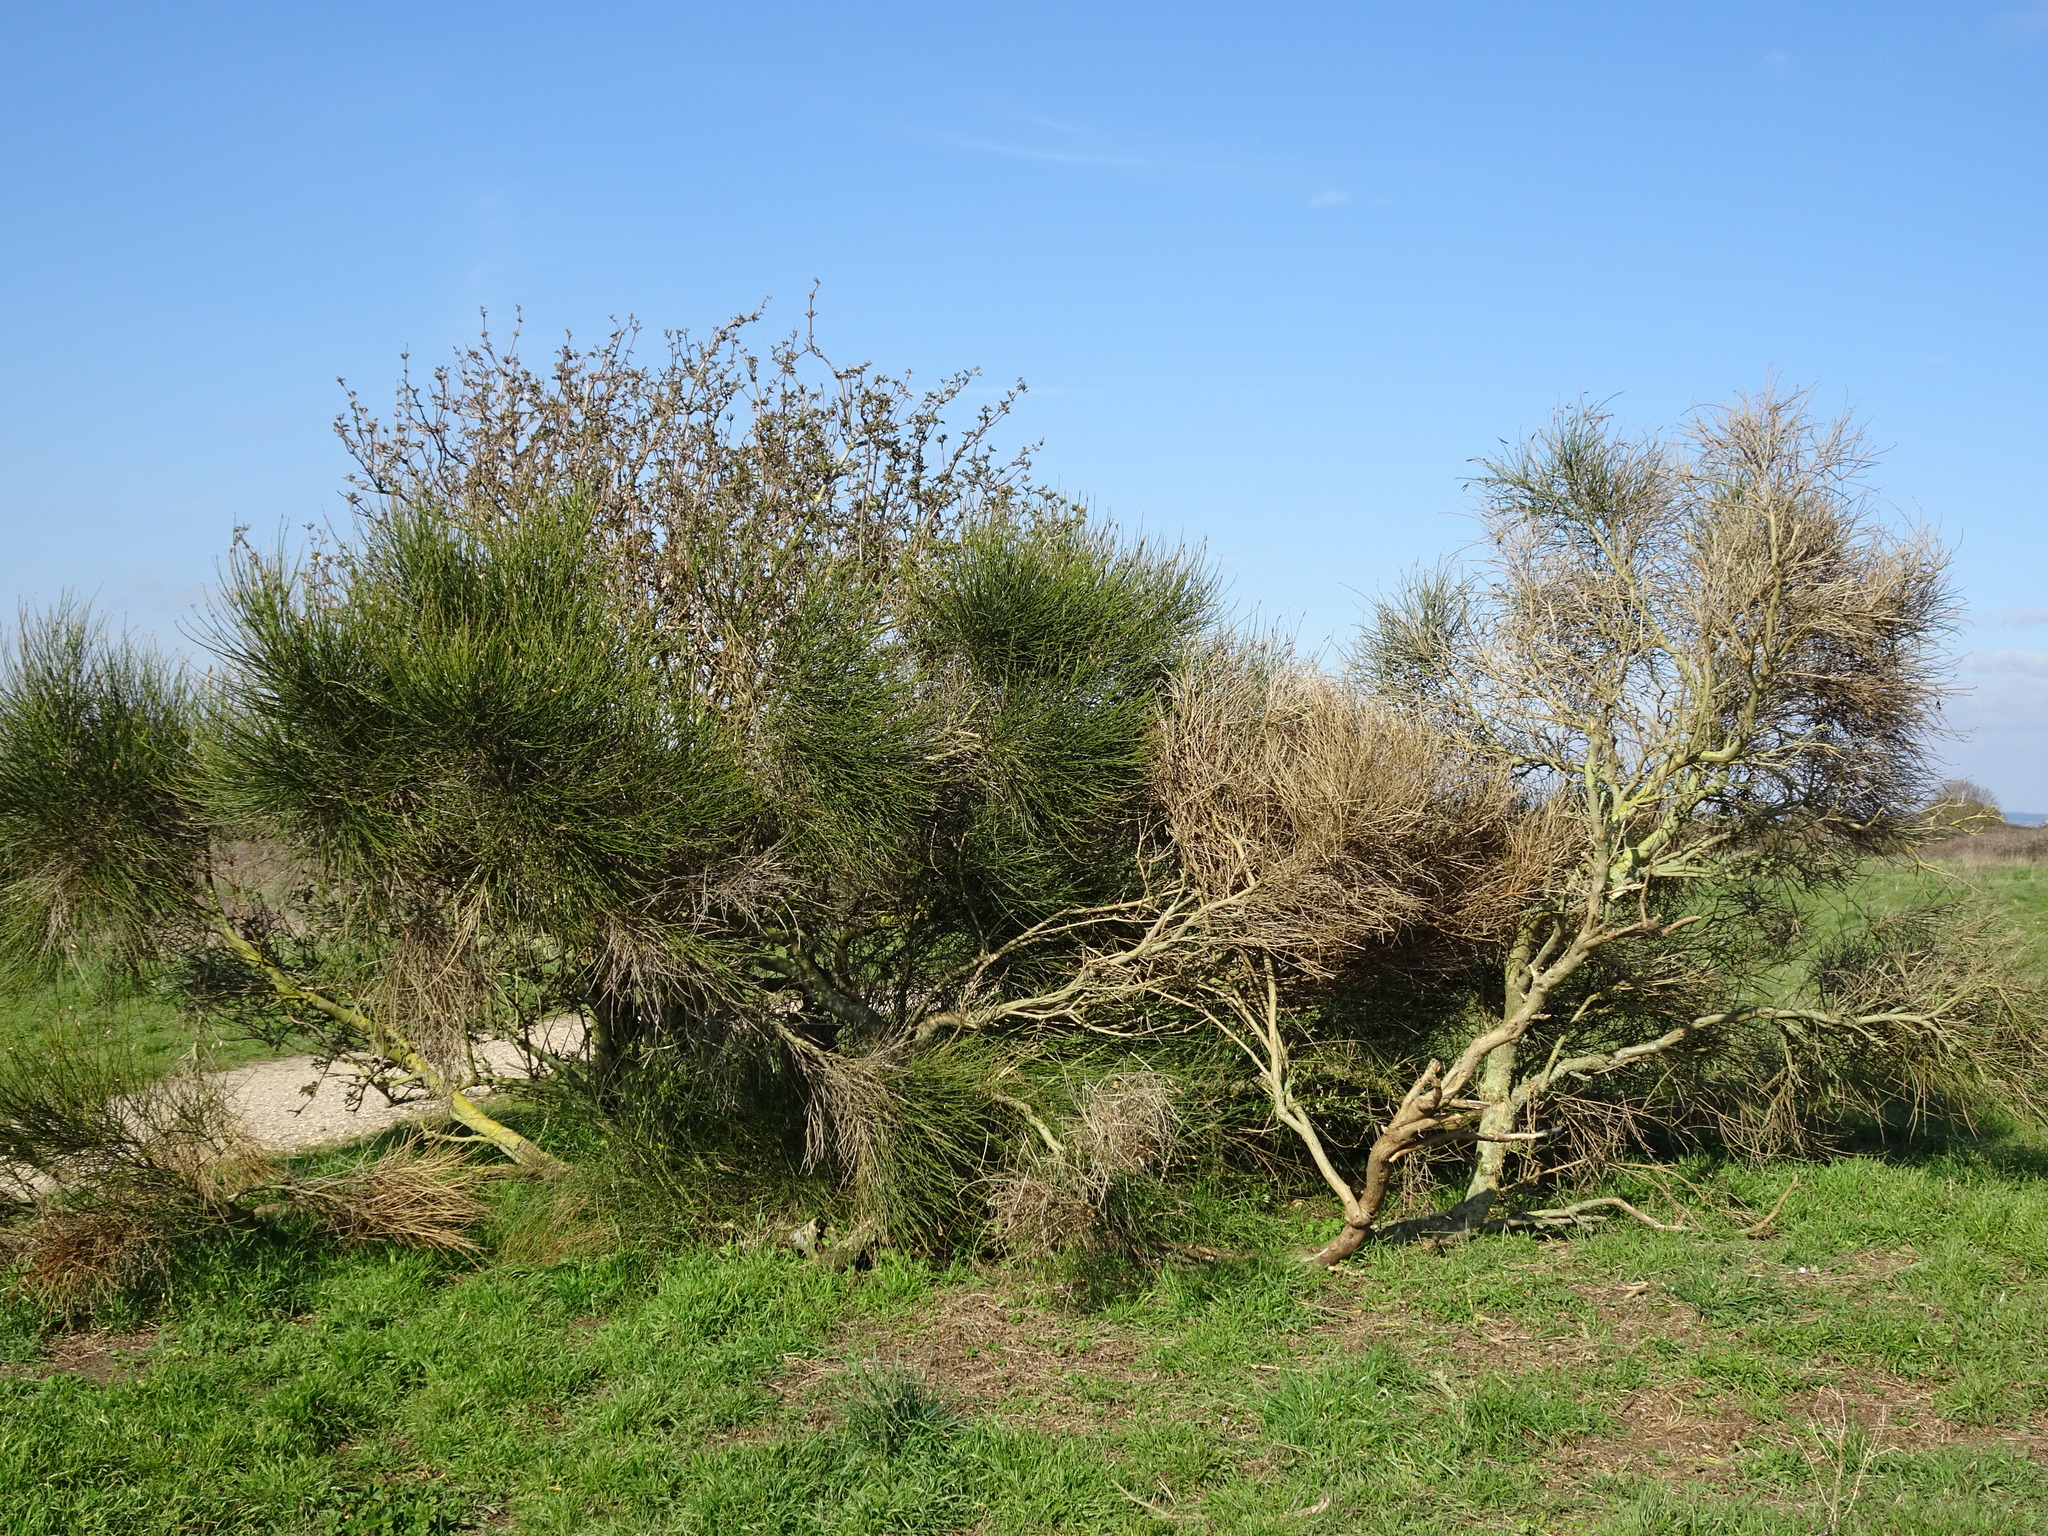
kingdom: Plantae
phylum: Tracheophyta
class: Magnoliopsida
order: Fabales
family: Fabaceae
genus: Spartium
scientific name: Spartium junceum
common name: Spanish broom
